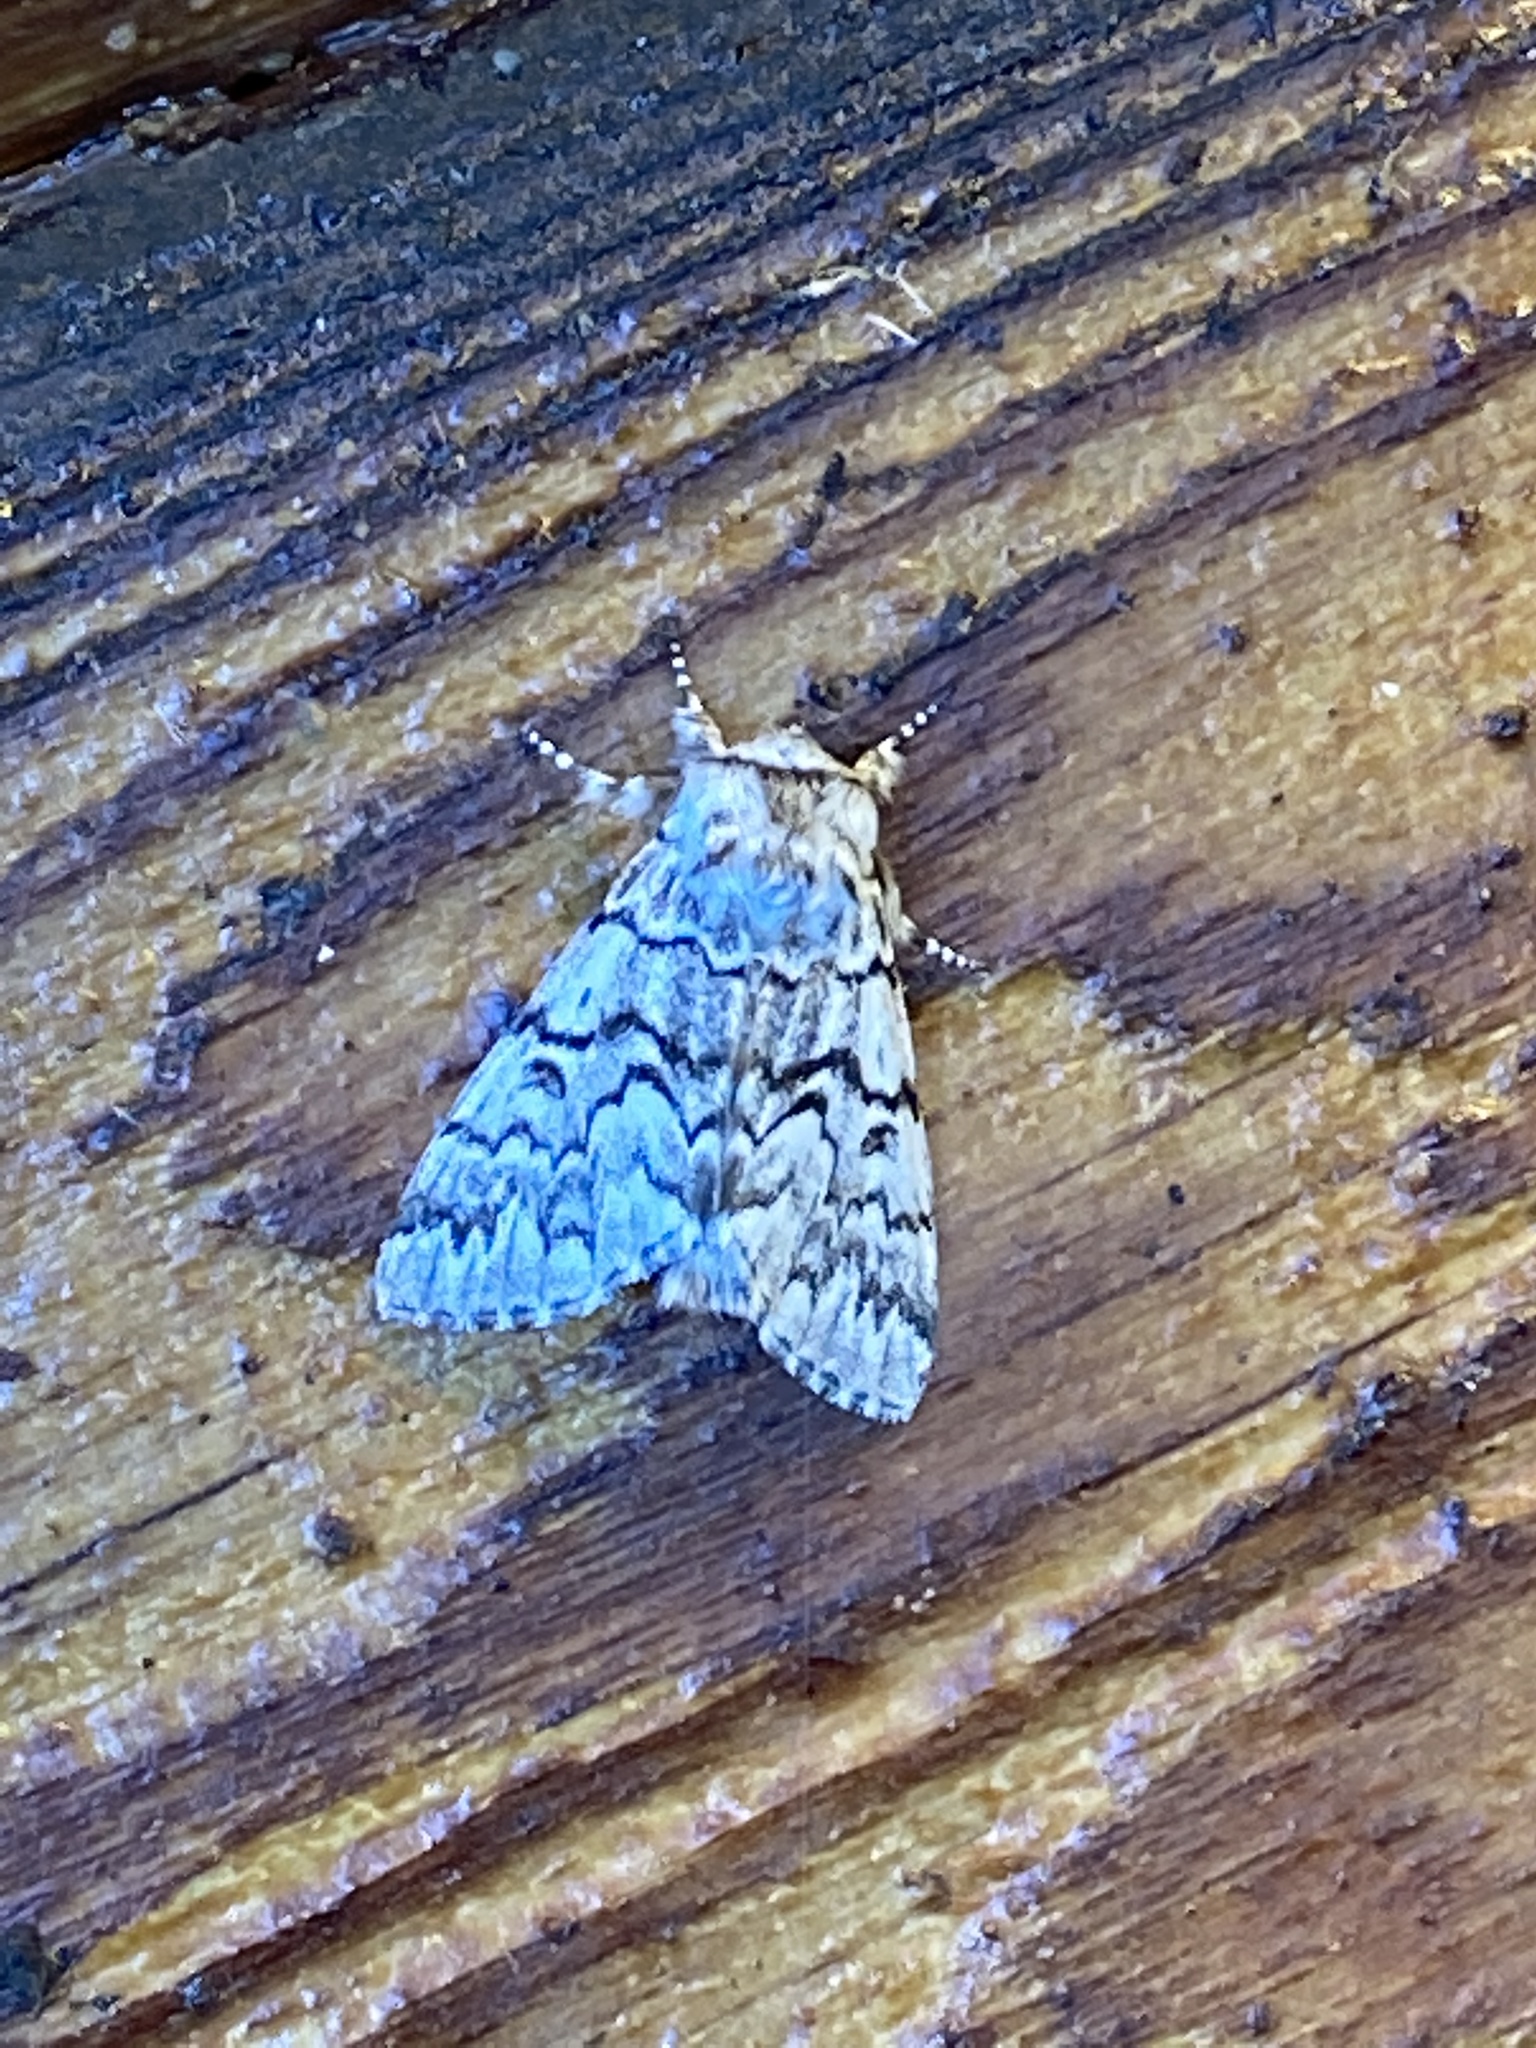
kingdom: Animalia
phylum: Arthropoda
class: Insecta
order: Lepidoptera
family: Noctuidae
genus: Panthea
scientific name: Panthea virginarius
